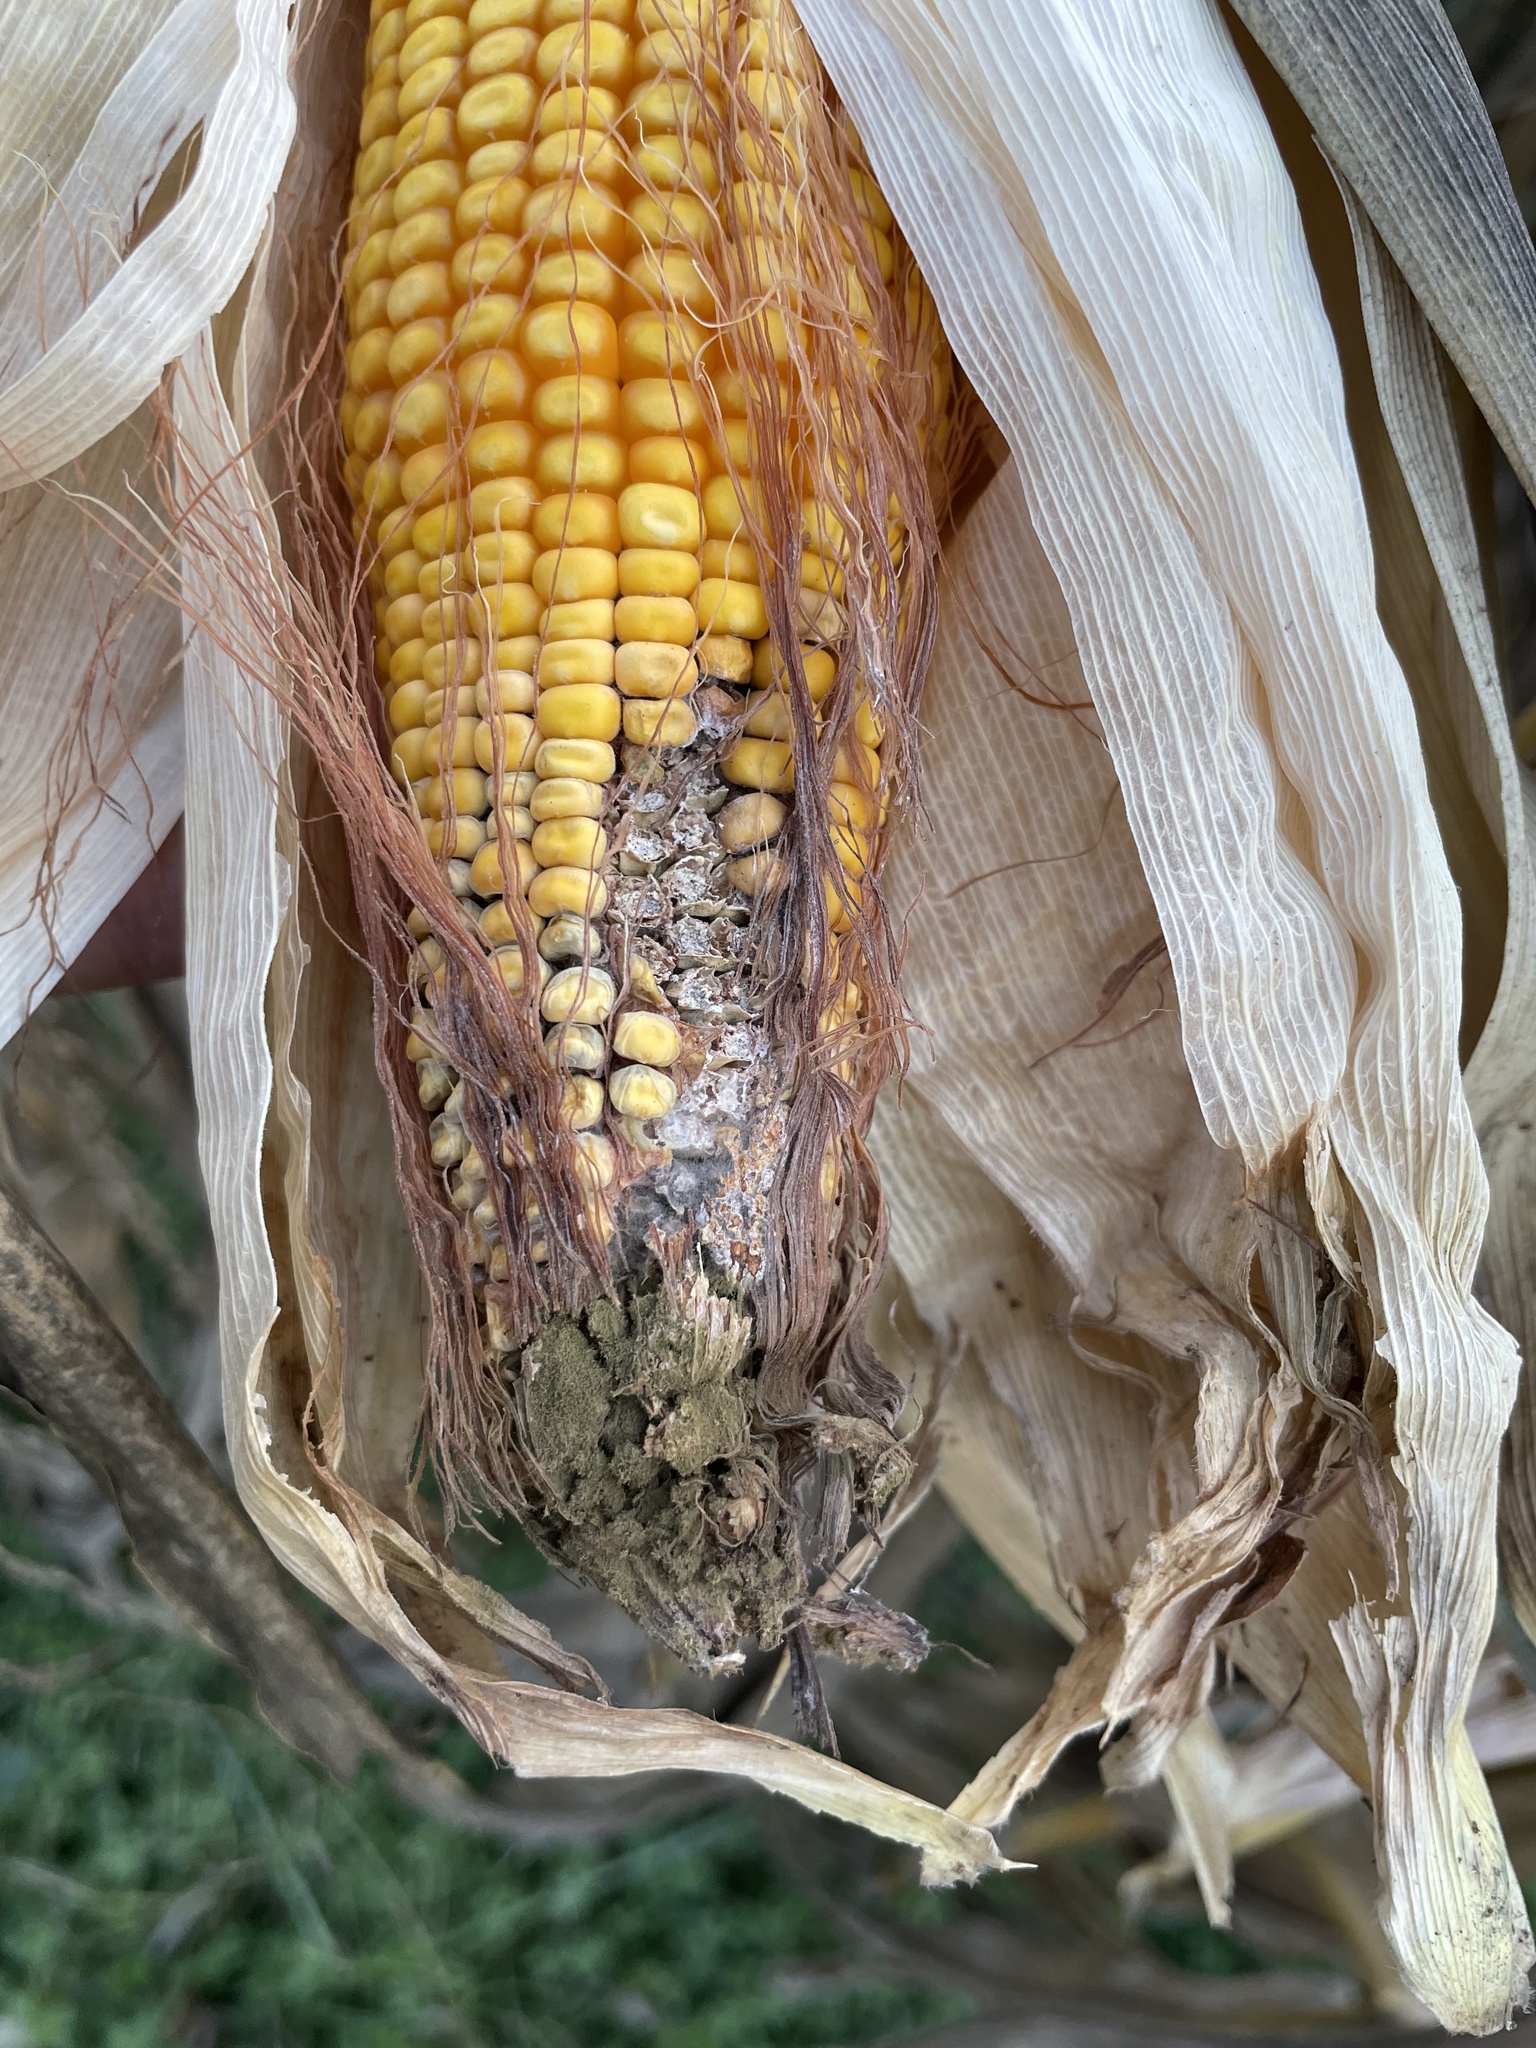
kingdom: Plantae
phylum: Tracheophyta
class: Liliopsida
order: Poales
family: Poaceae
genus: Zea
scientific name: Zea mays
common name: Maize
